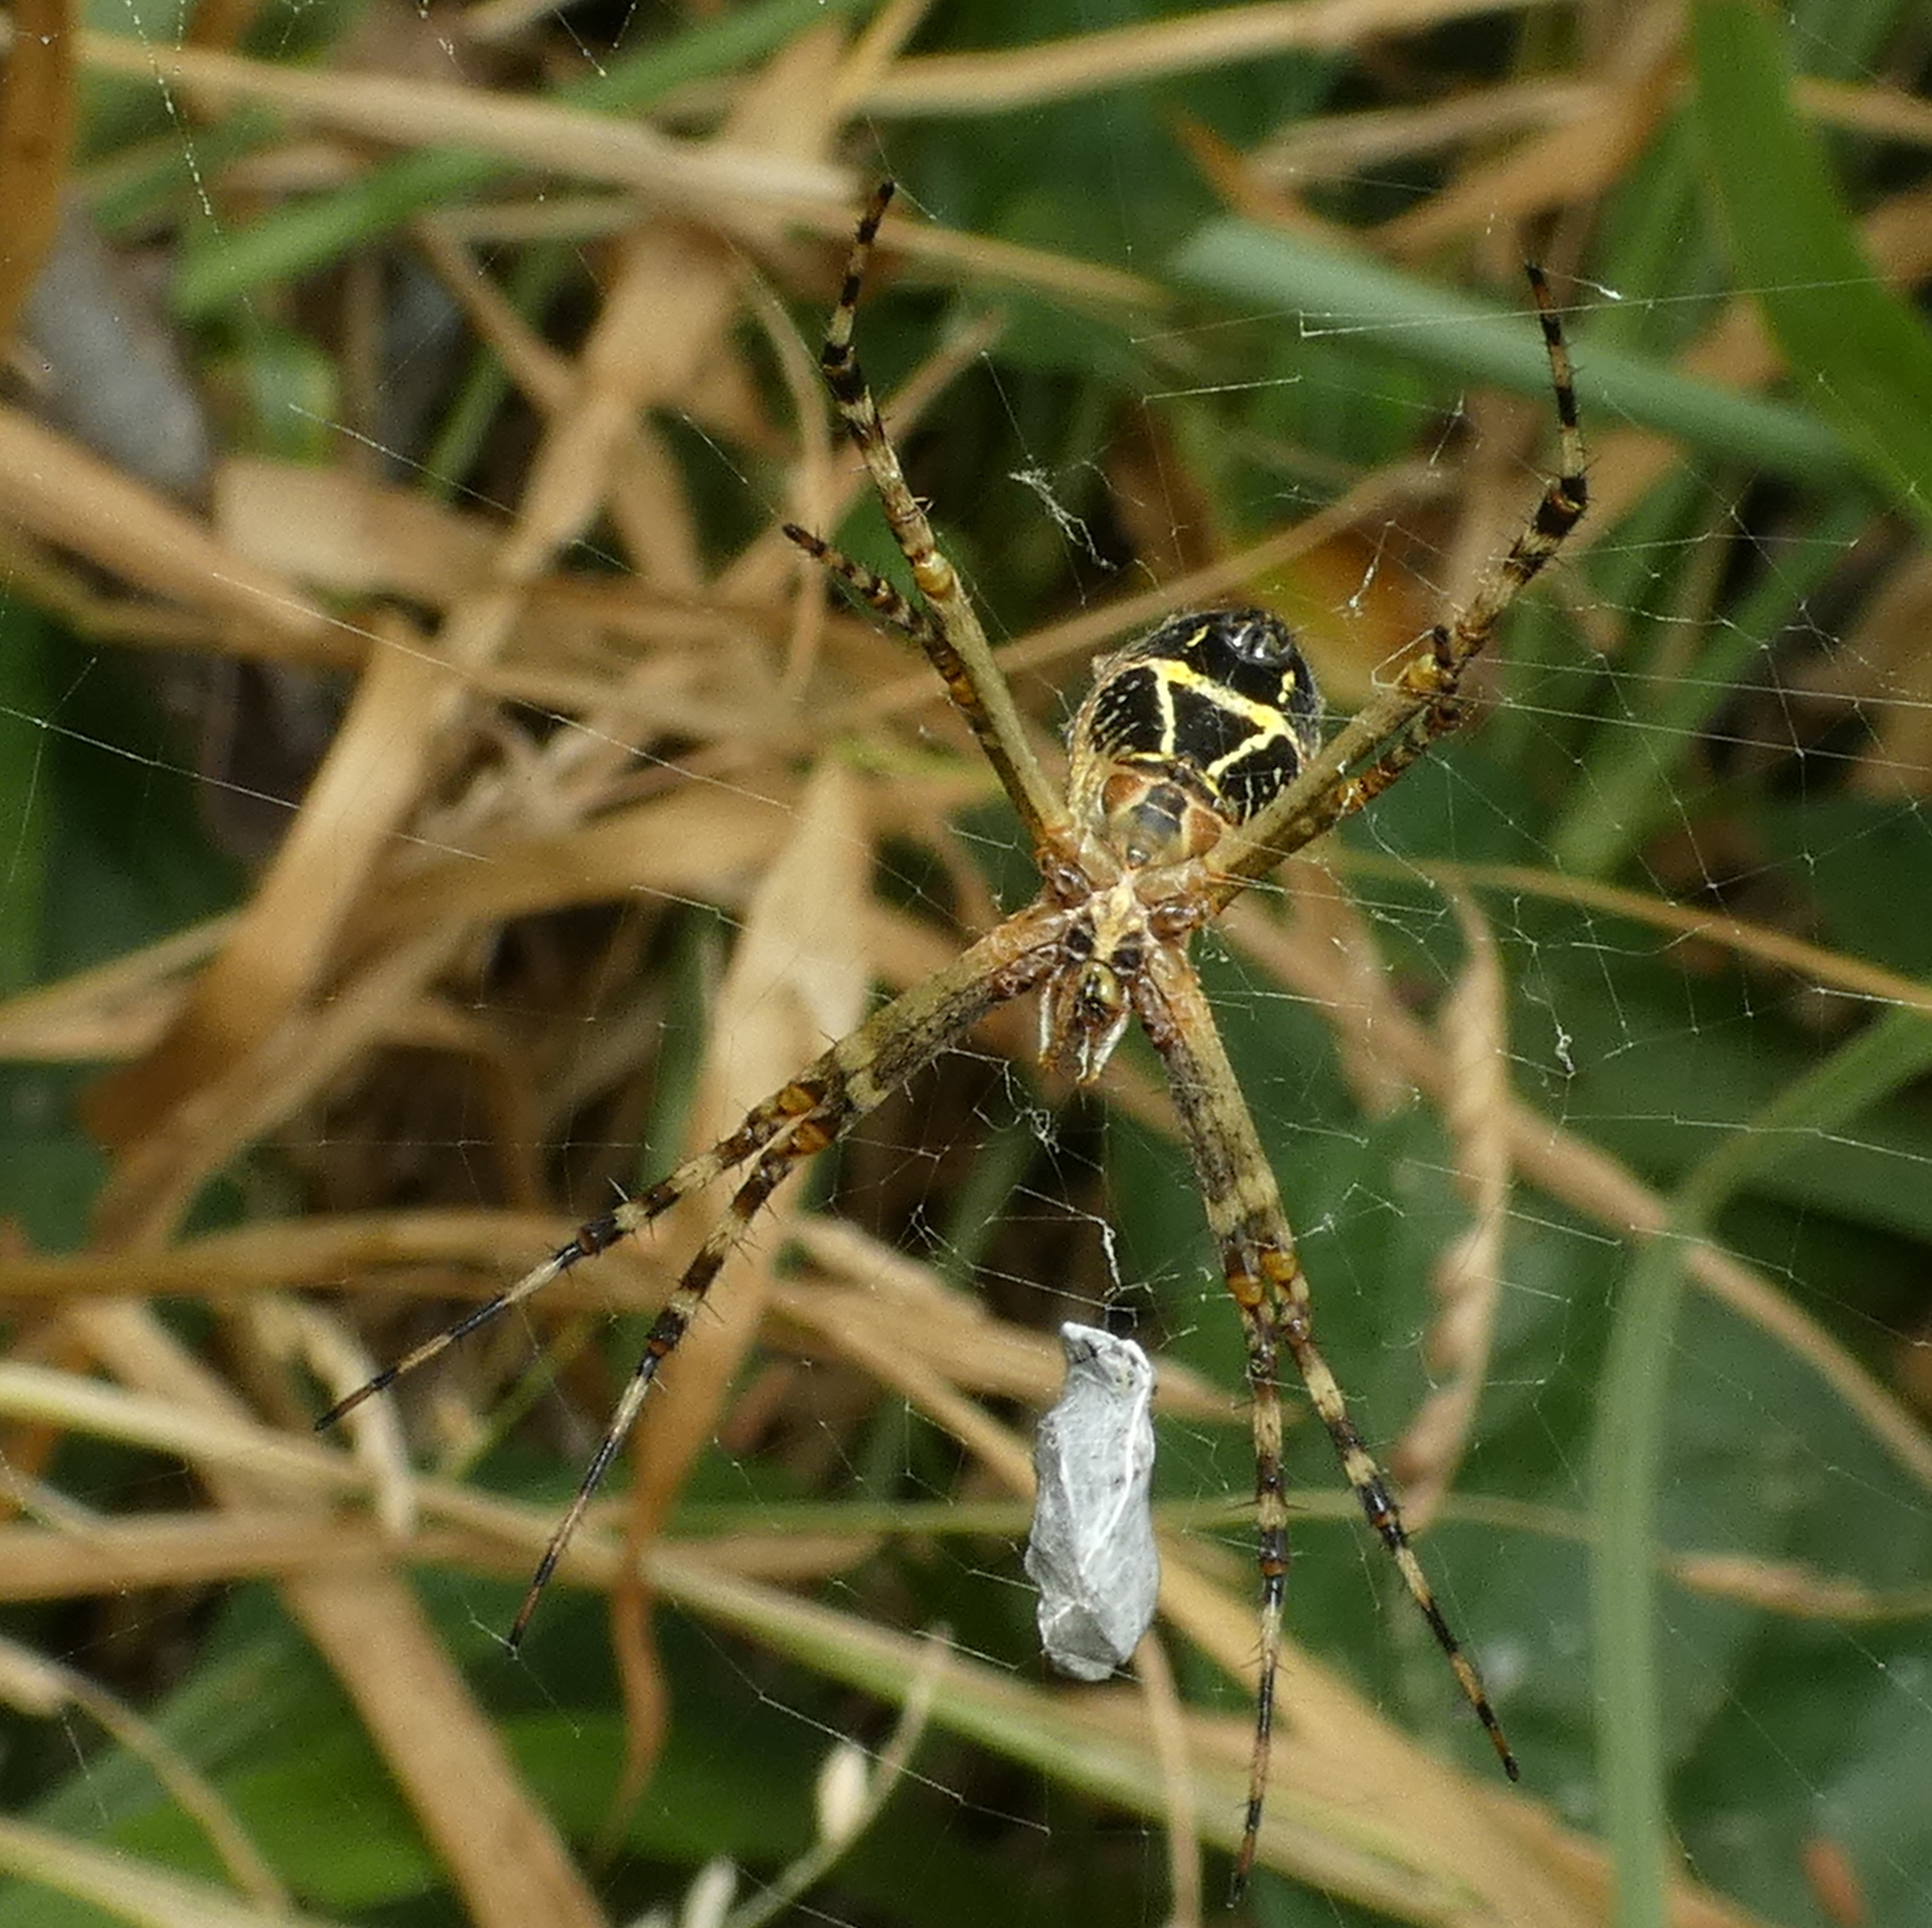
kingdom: Animalia
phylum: Arthropoda
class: Arachnida
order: Araneae
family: Araneidae
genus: Argiope
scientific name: Argiope argentata
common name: Orb weavers
